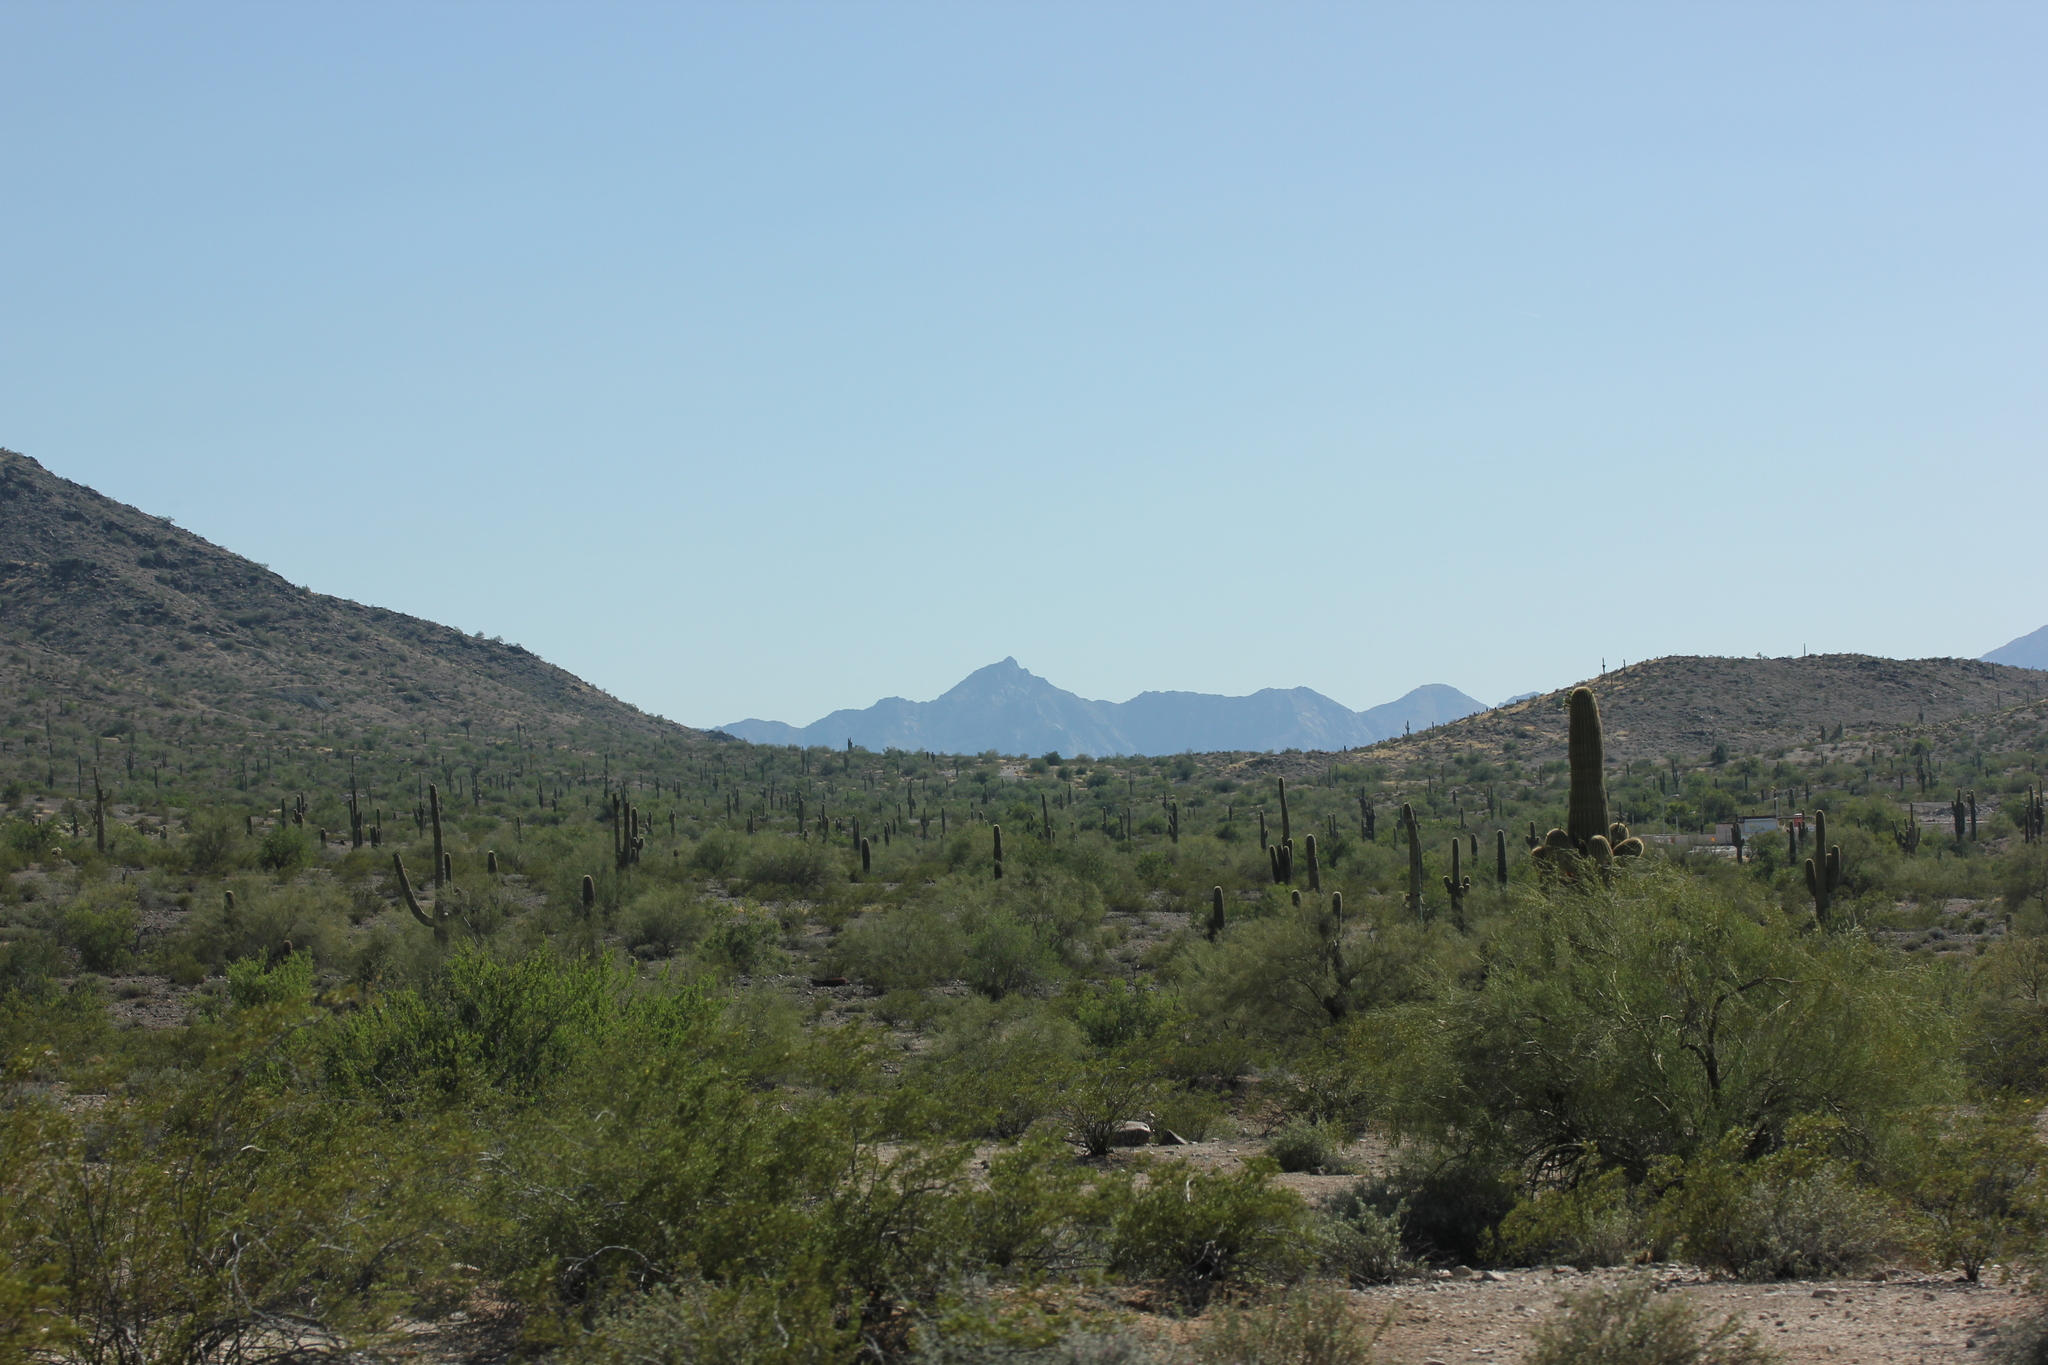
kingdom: Plantae
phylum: Tracheophyta
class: Magnoliopsida
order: Caryophyllales
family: Cactaceae
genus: Carnegiea
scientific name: Carnegiea gigantea
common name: Saguaro
